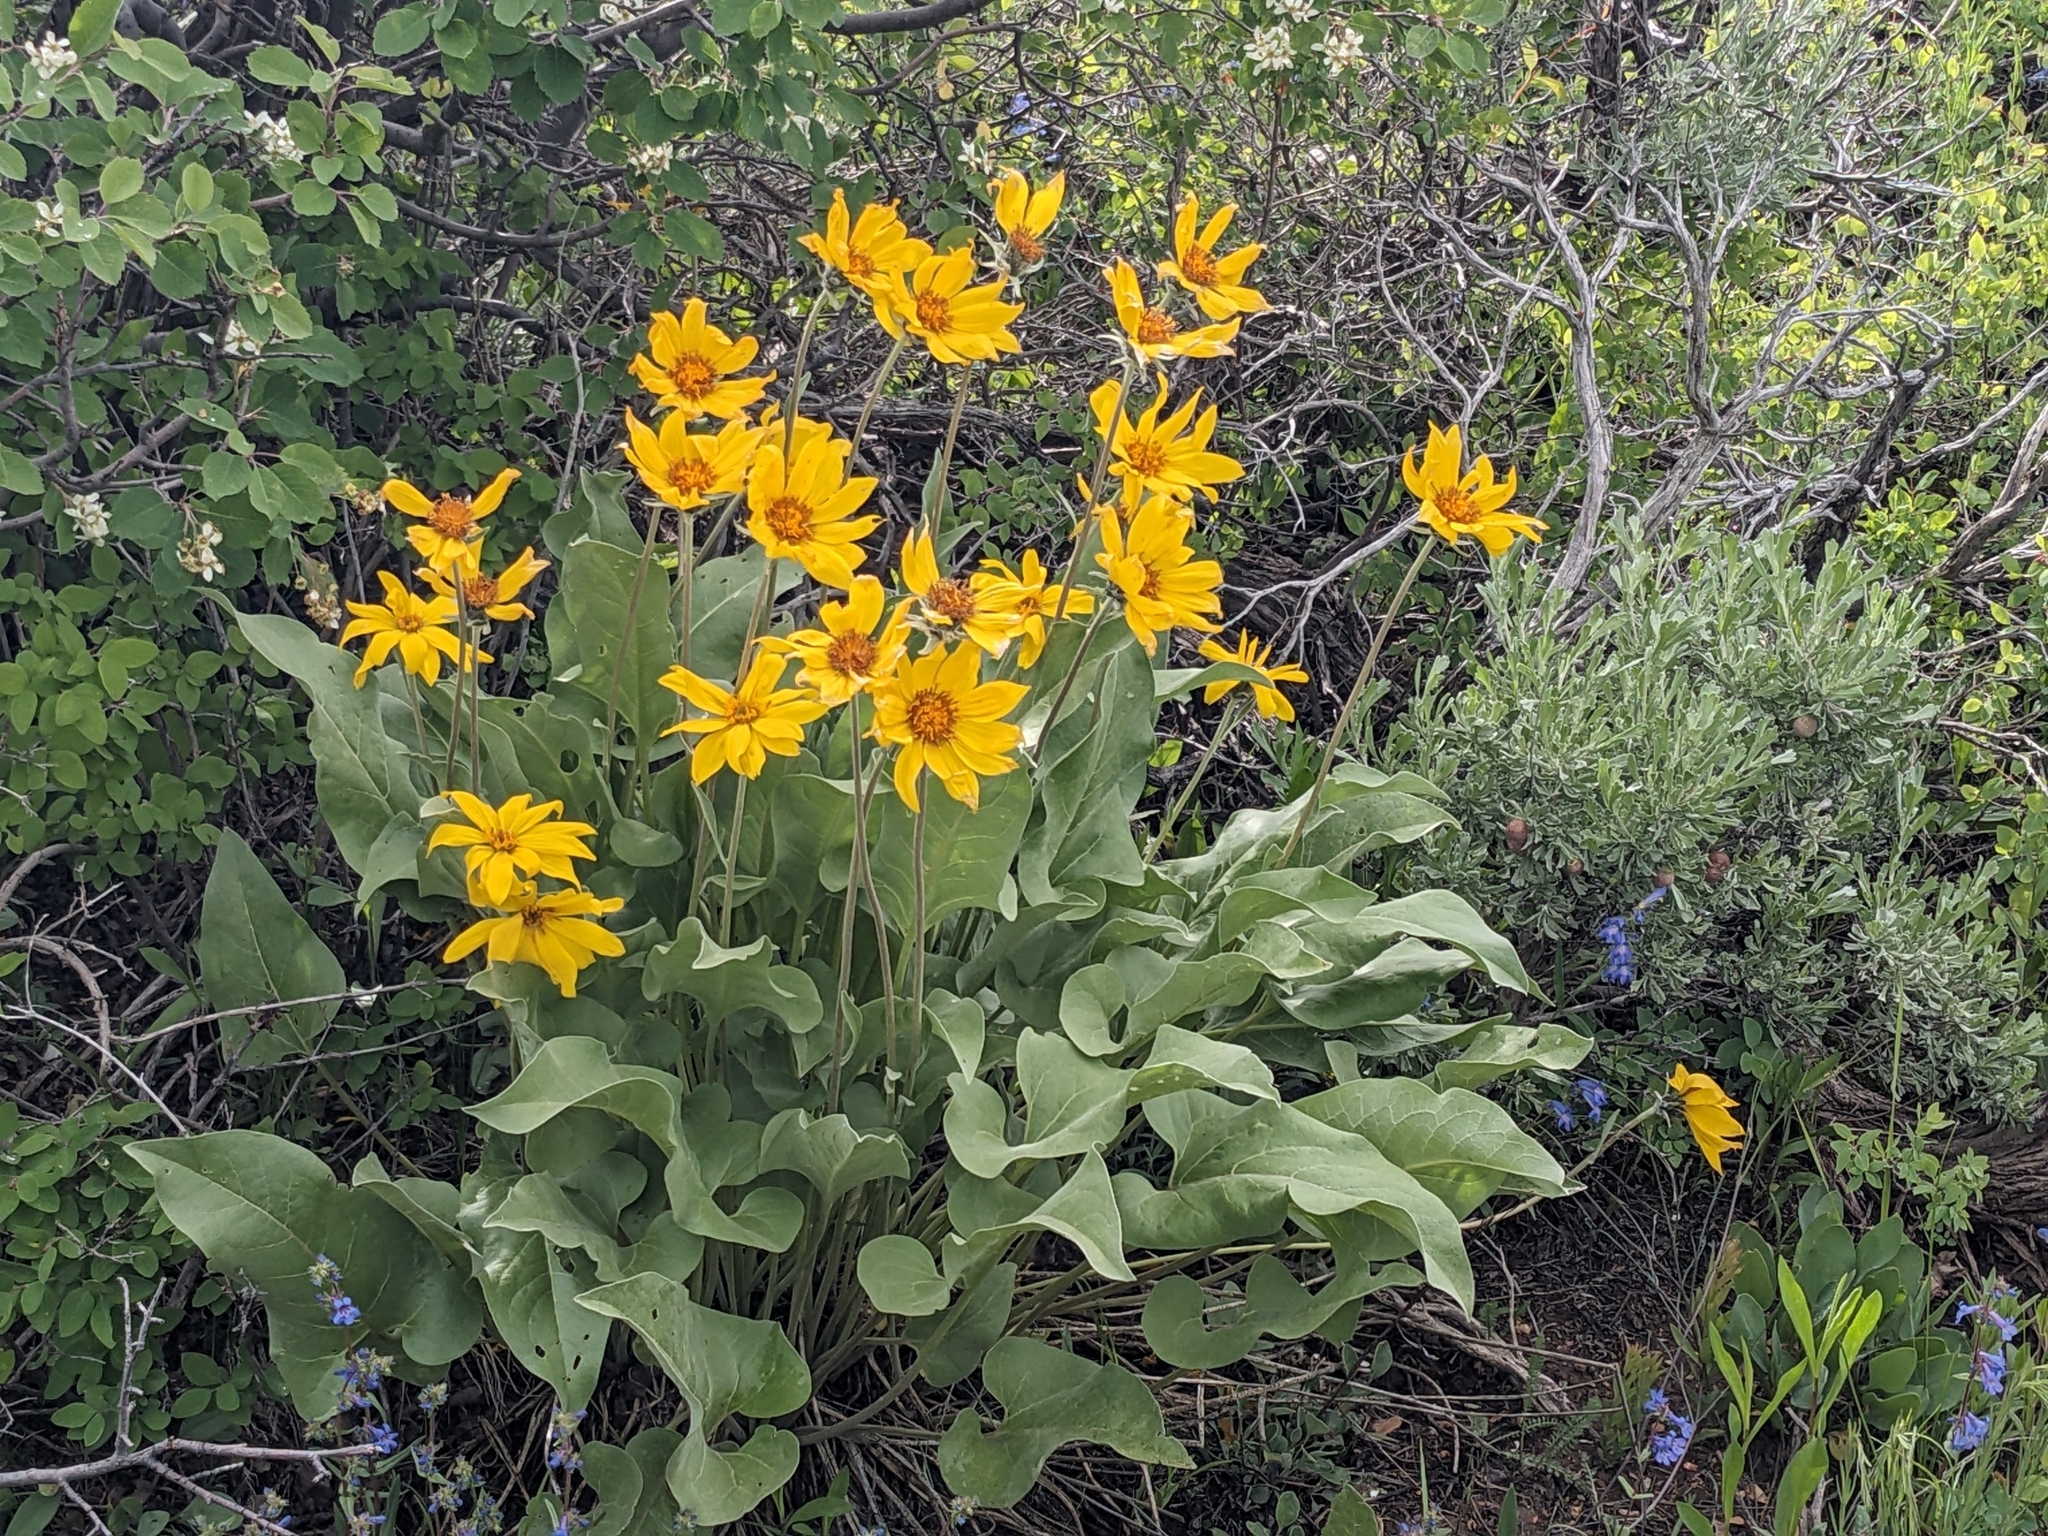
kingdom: Plantae
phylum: Tracheophyta
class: Magnoliopsida
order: Asterales
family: Asteraceae
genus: Wyethia
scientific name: Wyethia sagittata
